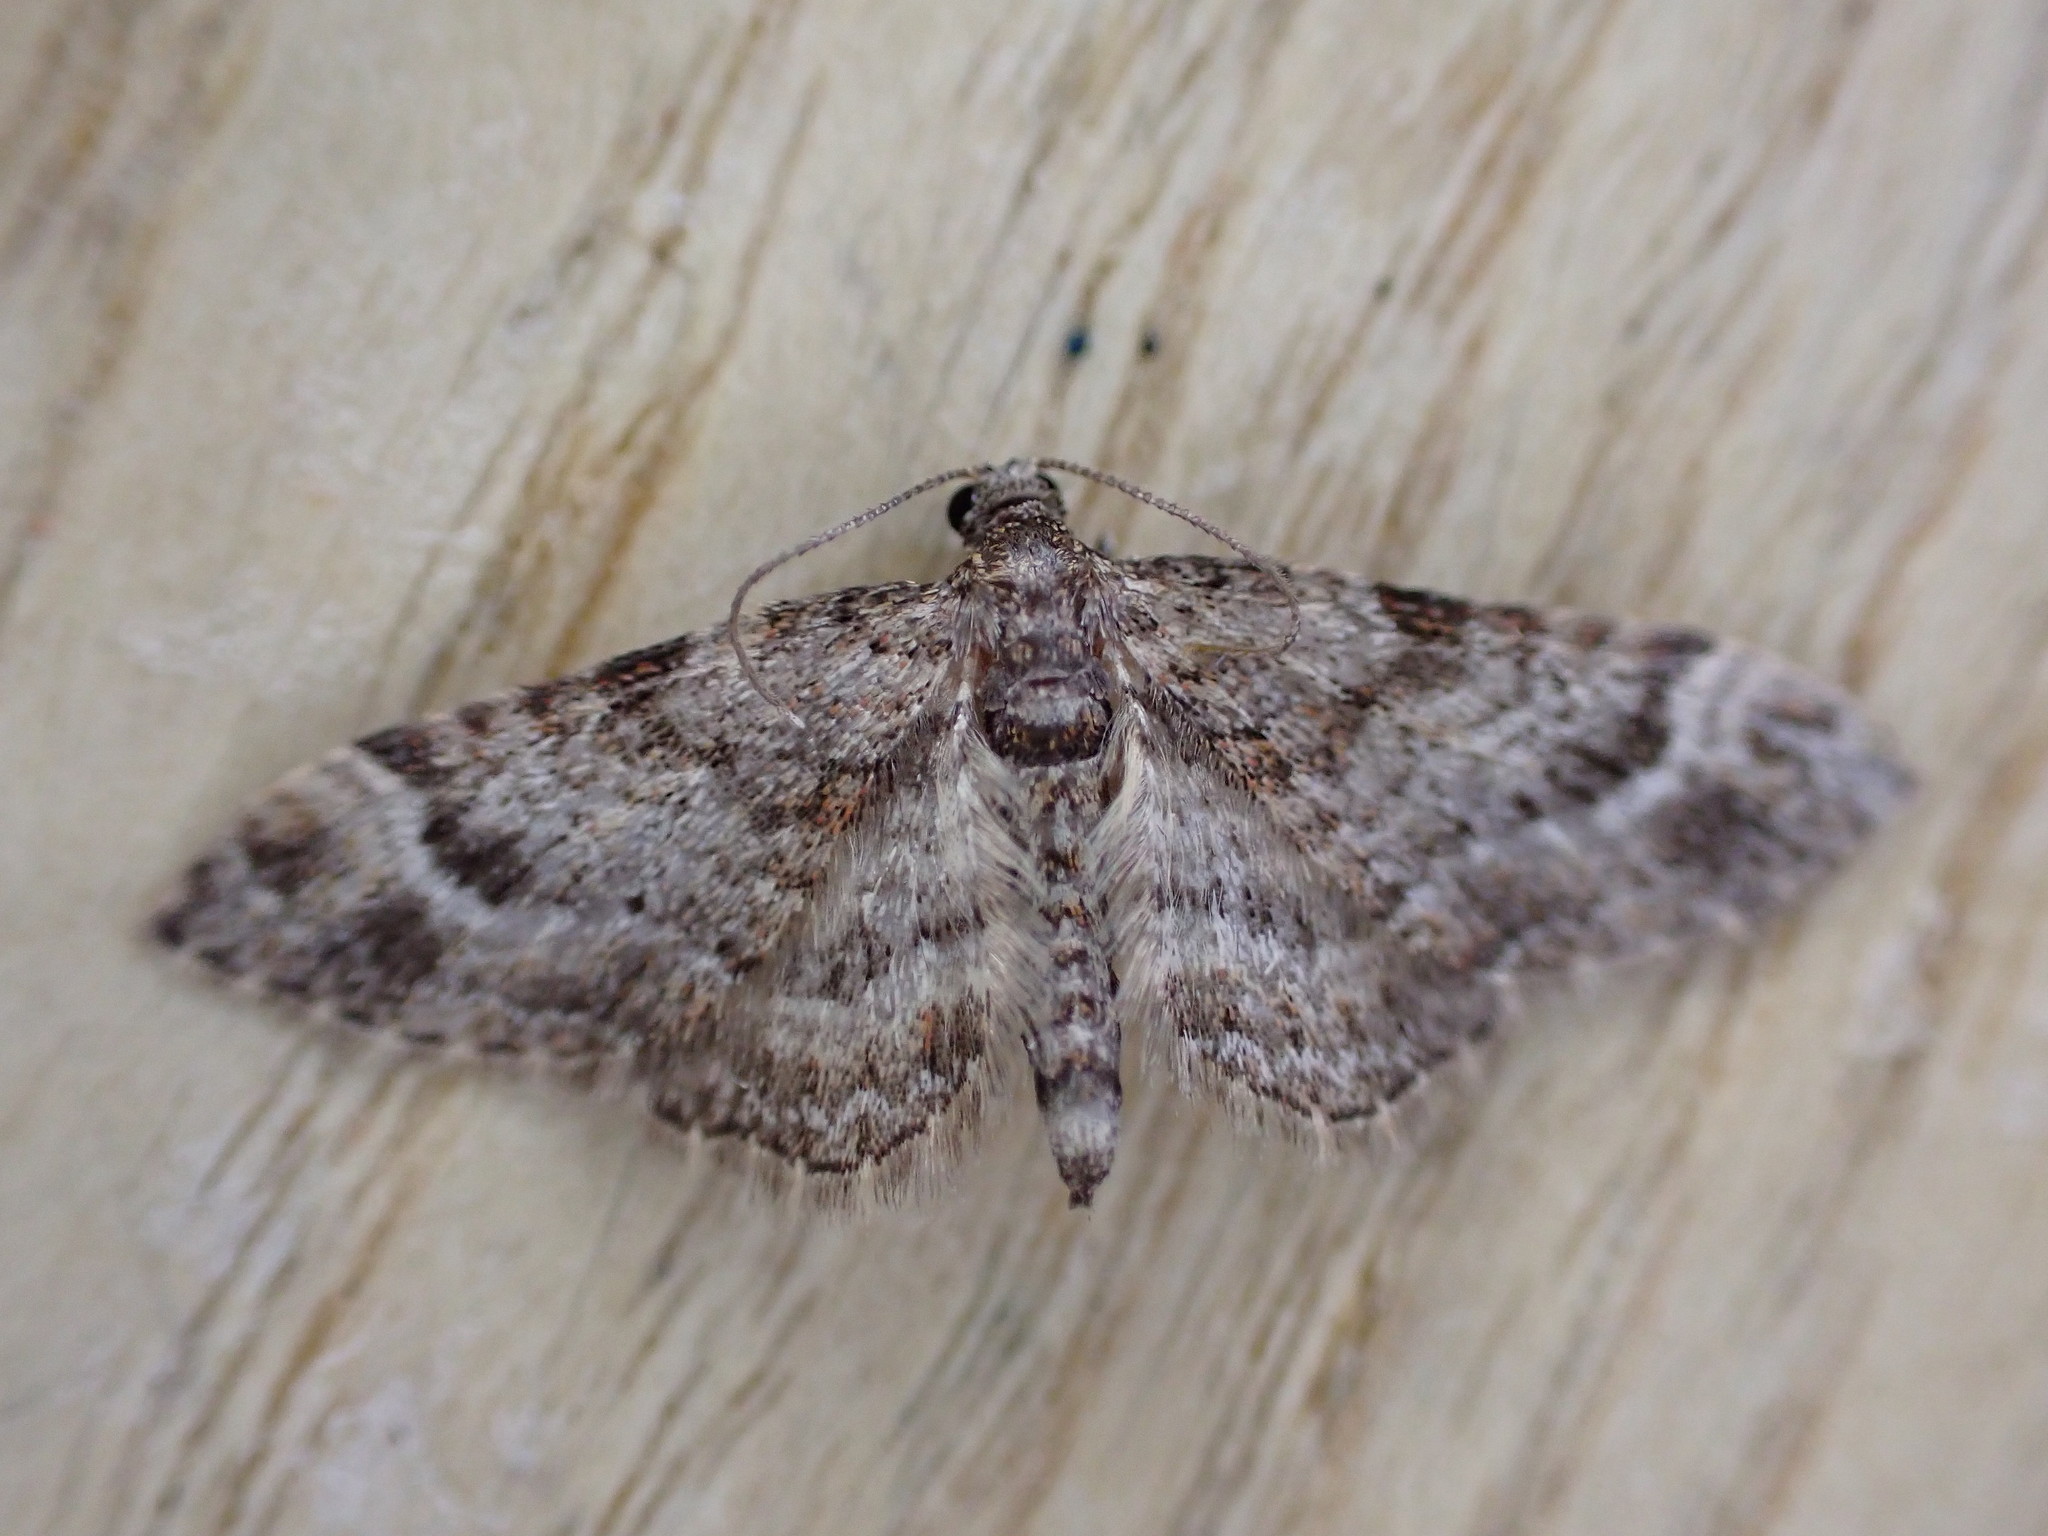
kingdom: Animalia
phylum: Arthropoda
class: Insecta
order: Lepidoptera
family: Geometridae
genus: Gymnoscelis
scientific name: Gymnoscelis rufifasciata
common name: Double-striped pug
